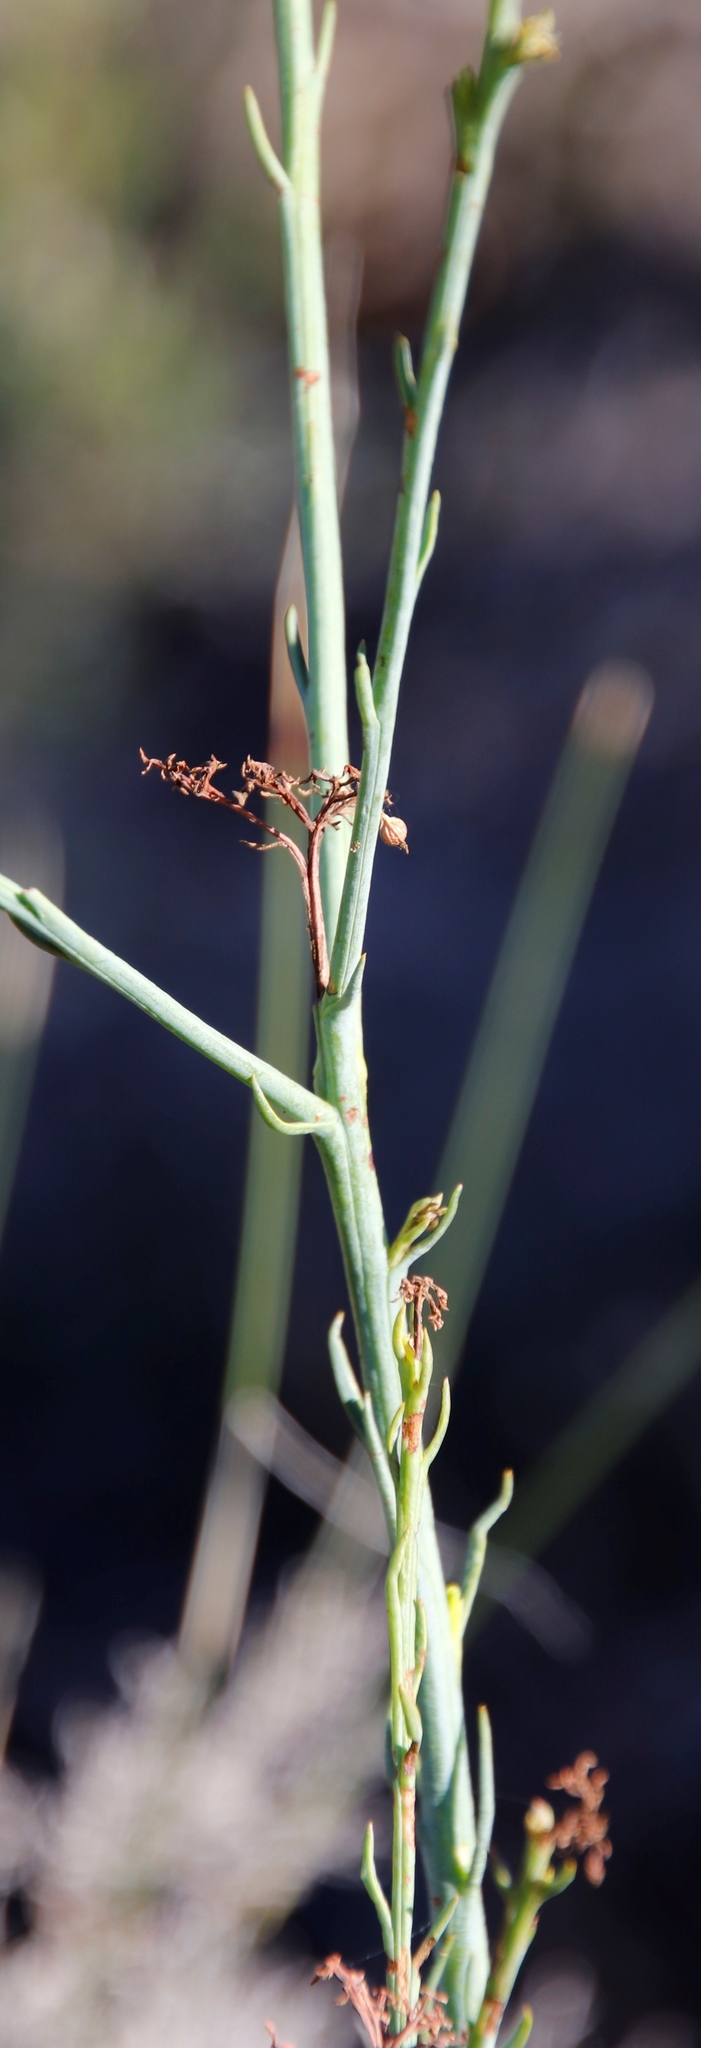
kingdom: Plantae
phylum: Tracheophyta
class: Magnoliopsida
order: Santalales
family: Thesiaceae
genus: Thesium
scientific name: Thesium strictum
